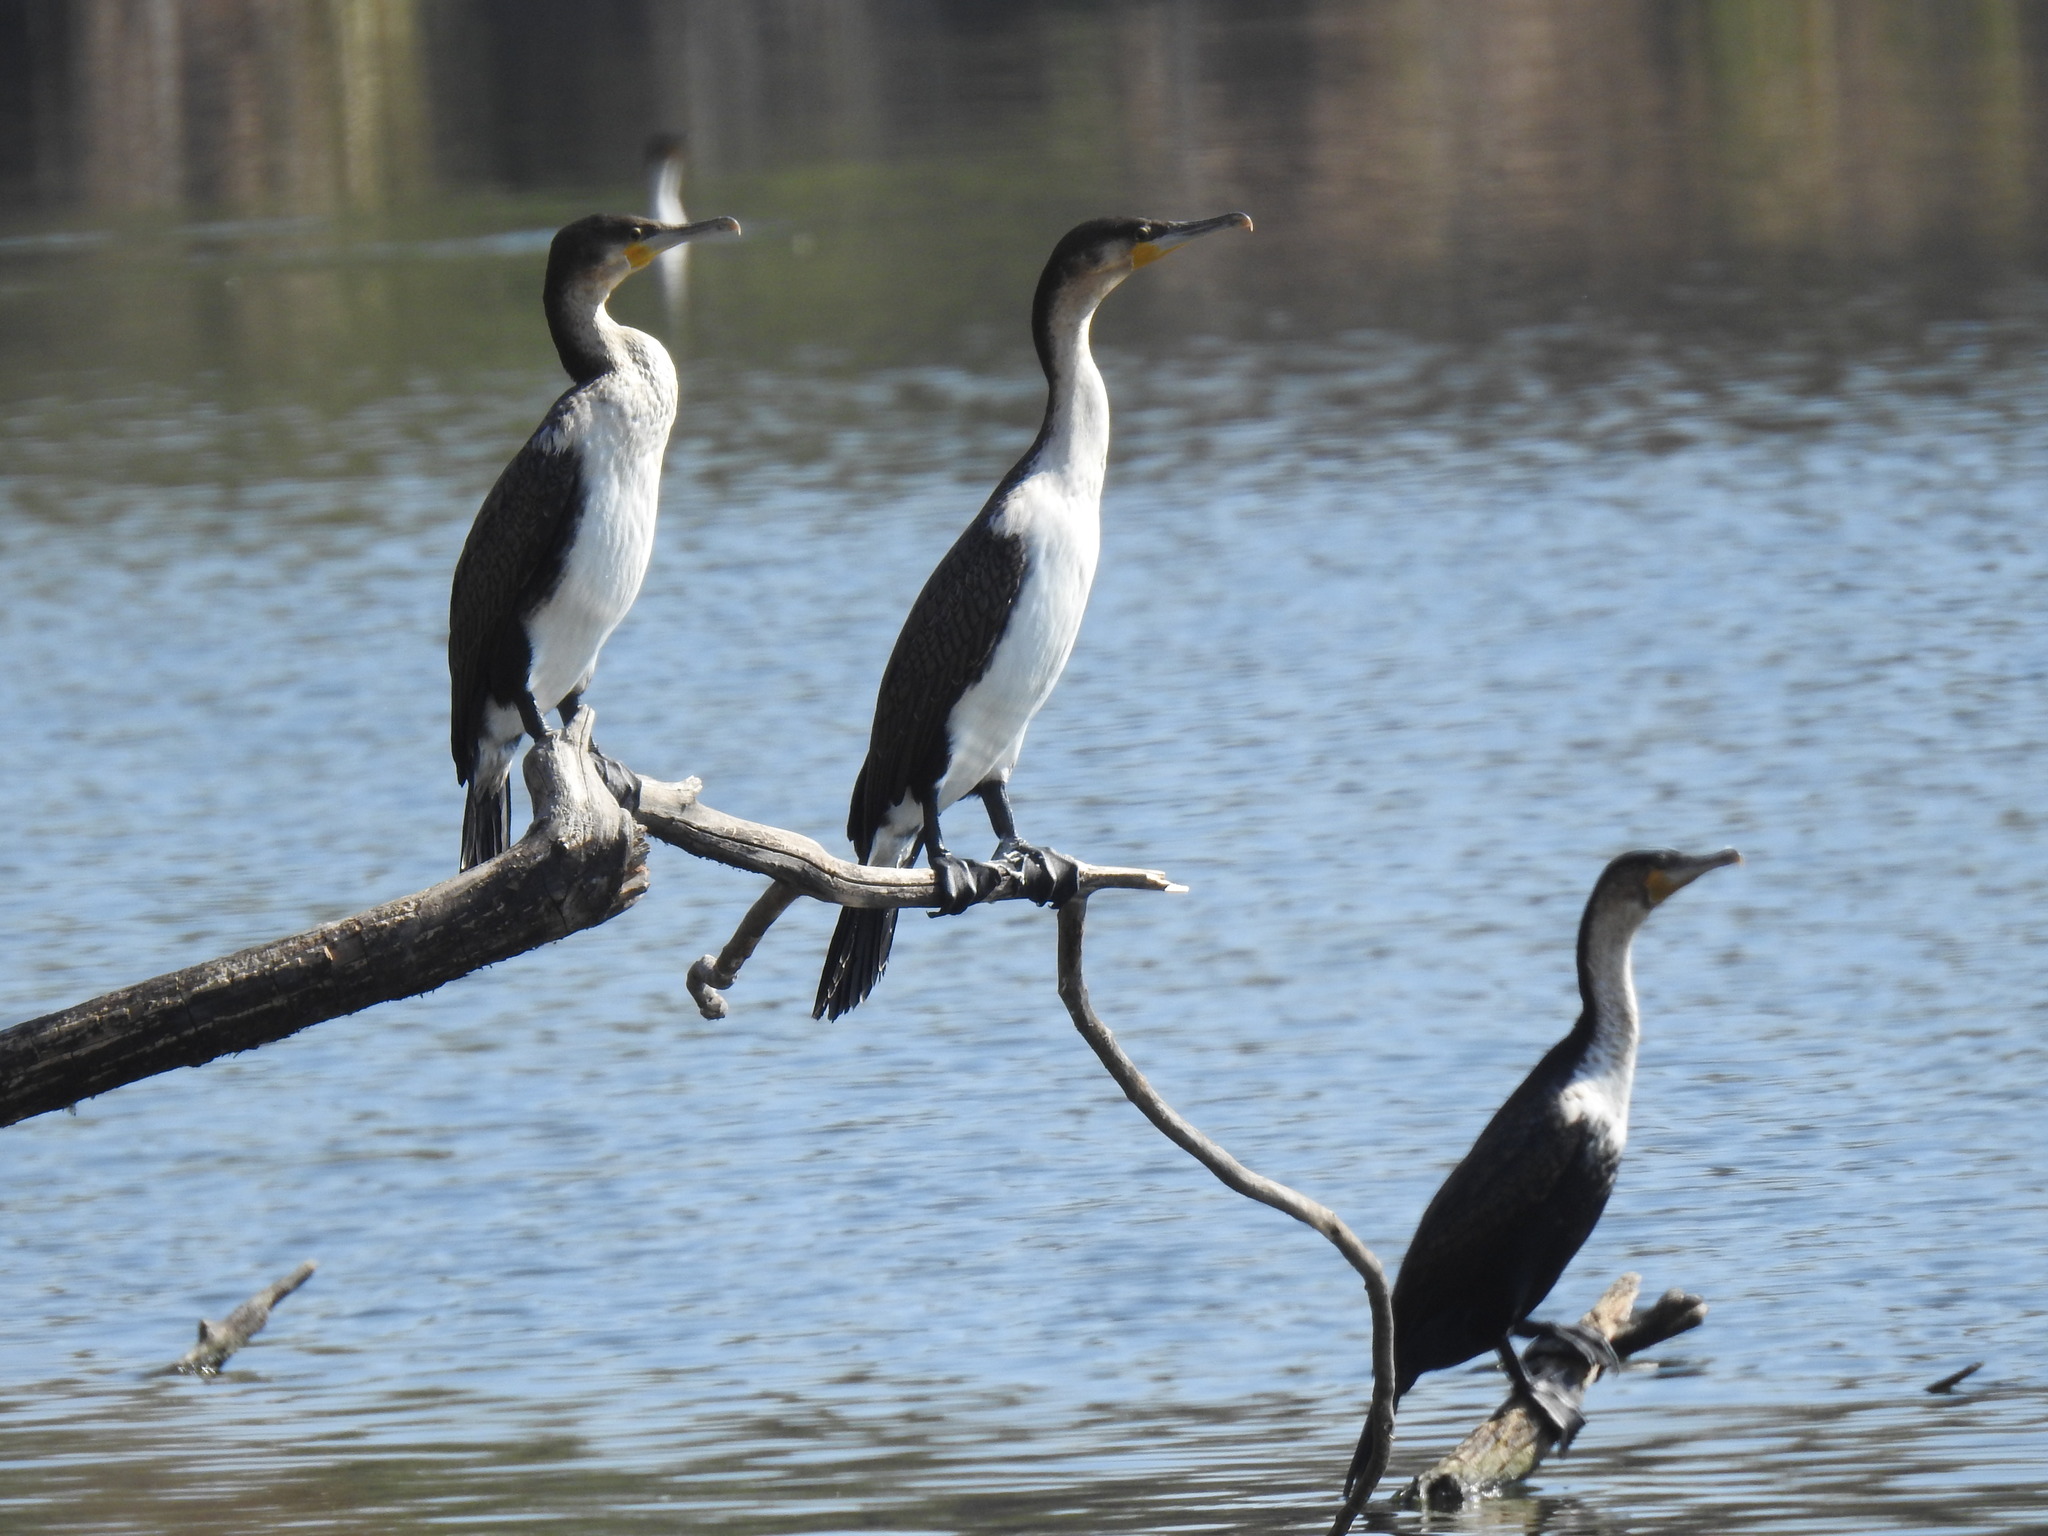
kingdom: Animalia
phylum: Chordata
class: Aves
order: Suliformes
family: Phalacrocoracidae
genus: Phalacrocorax
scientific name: Phalacrocorax carbo
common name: Great cormorant
